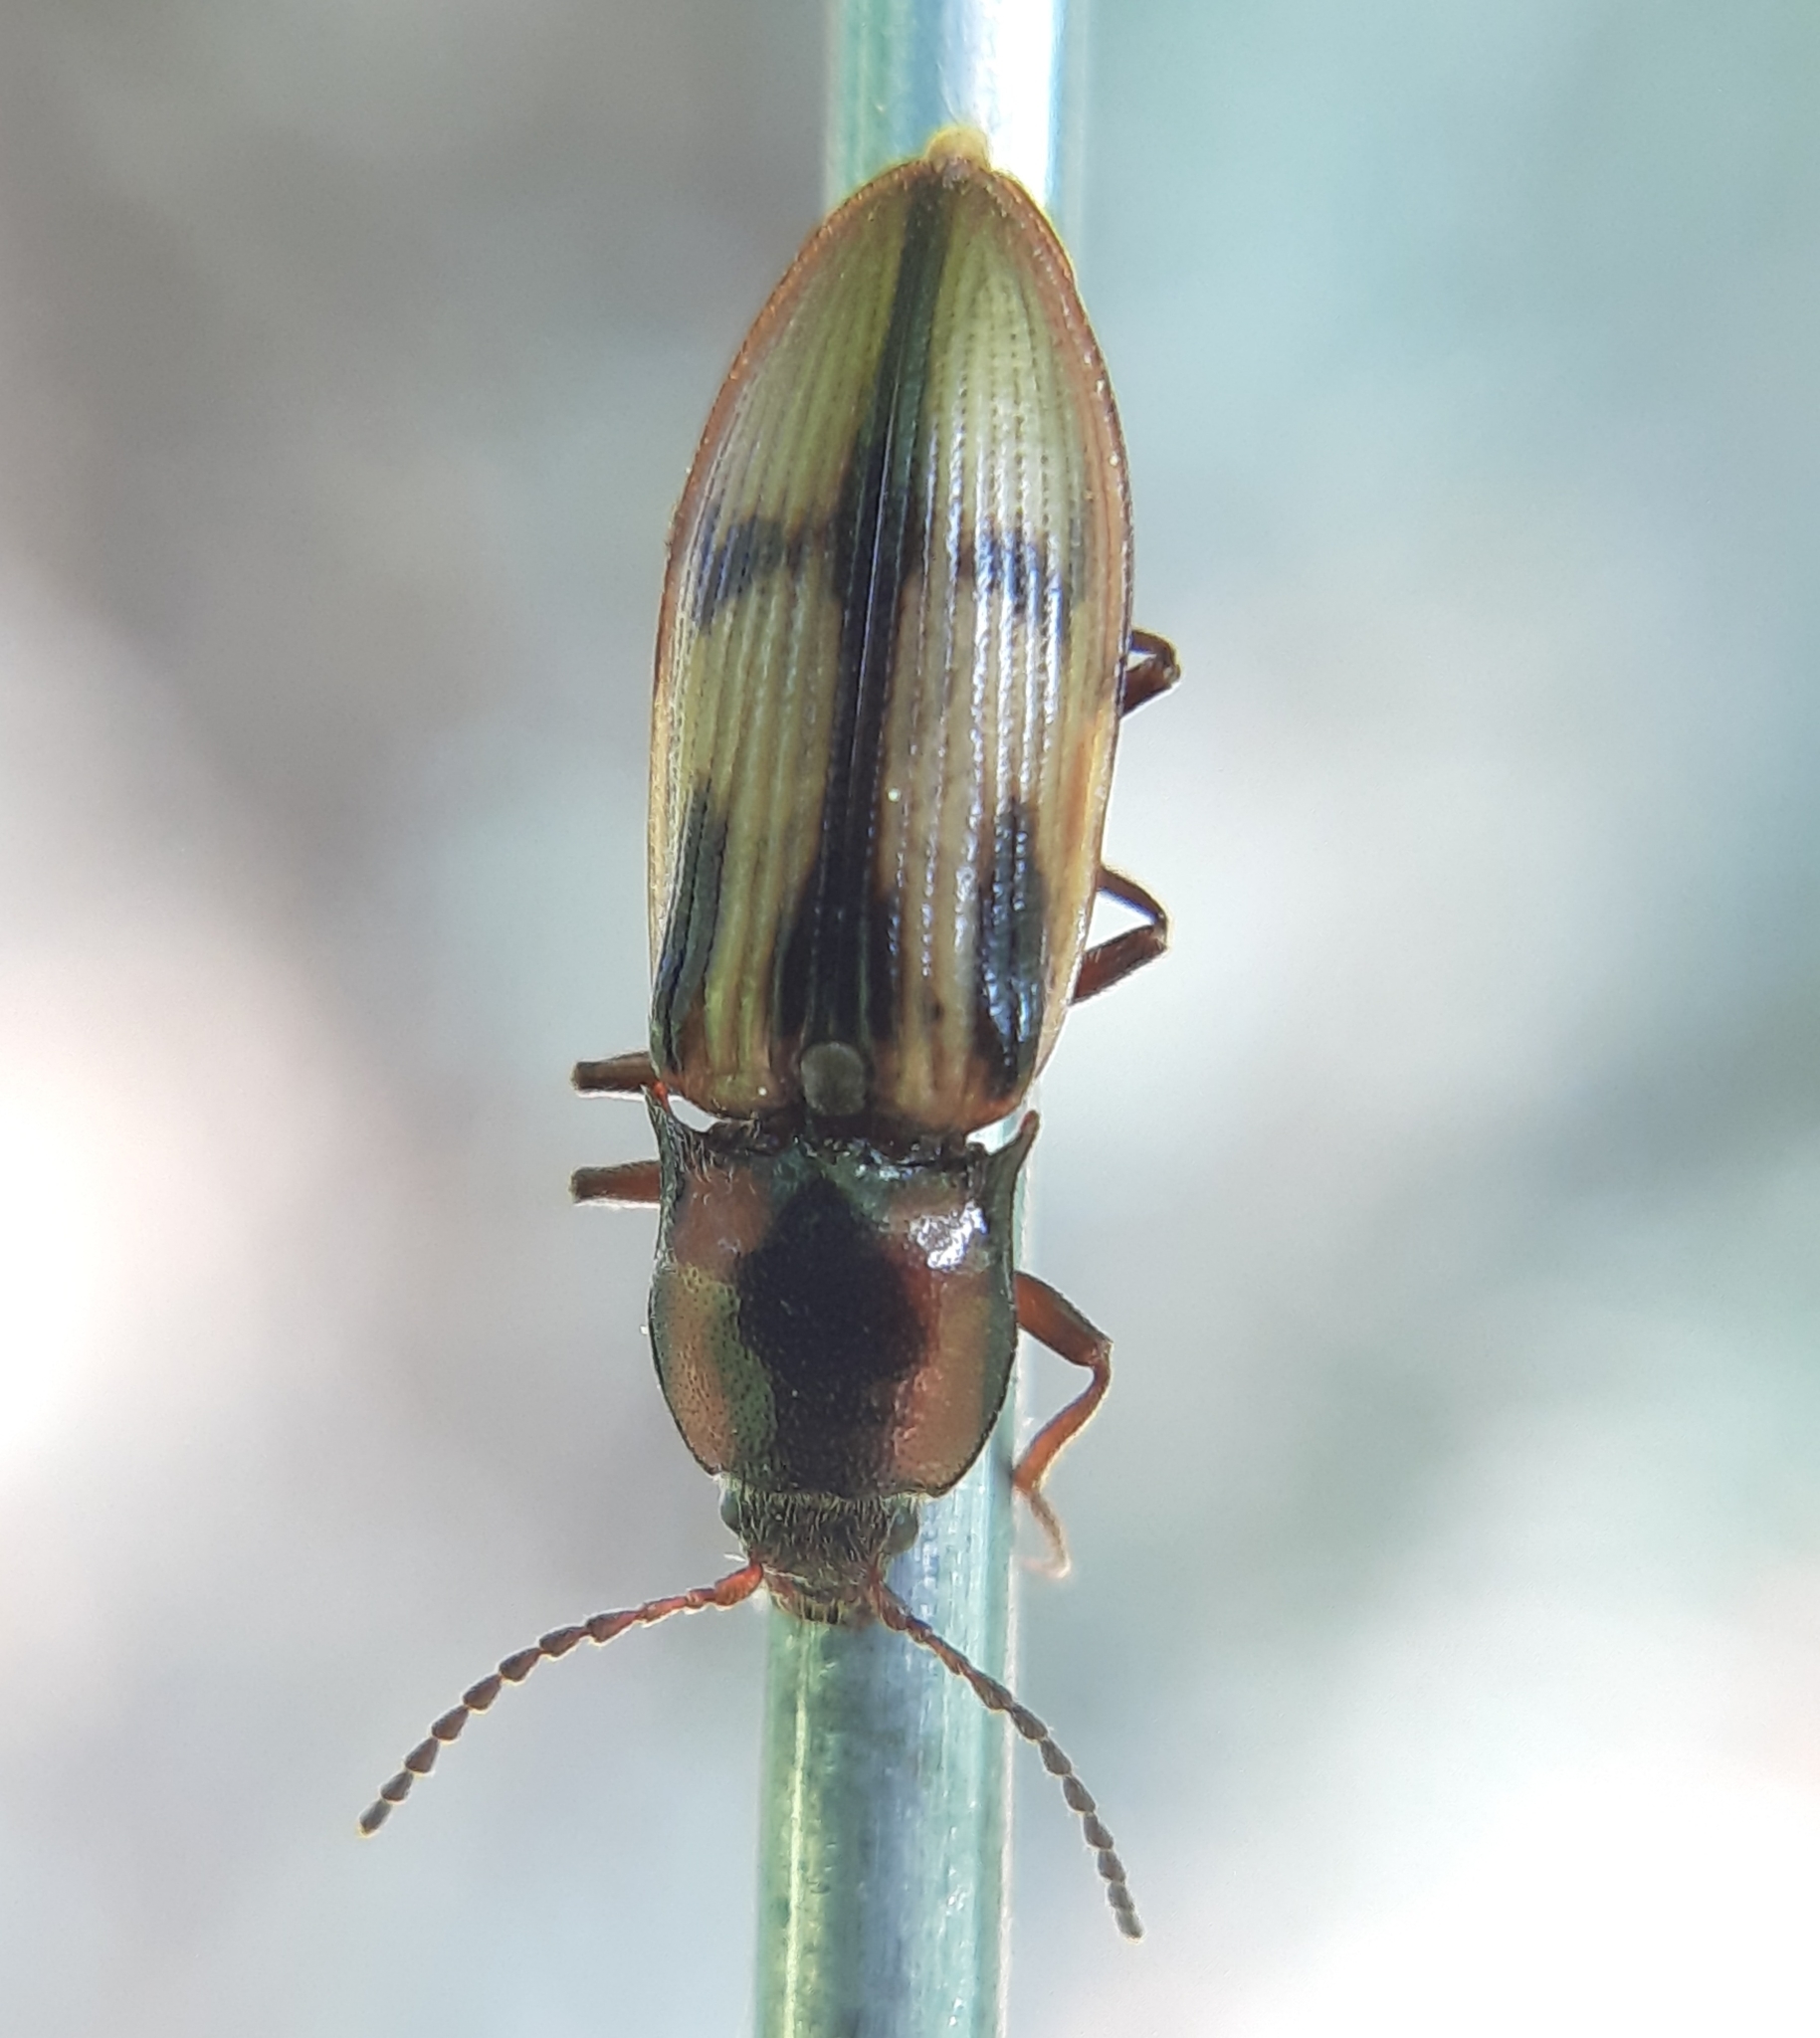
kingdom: Animalia
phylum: Arthropoda
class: Insecta
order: Coleoptera
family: Elateridae
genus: Selatosomus
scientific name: Selatosomus pulcher
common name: Noble click beetle
